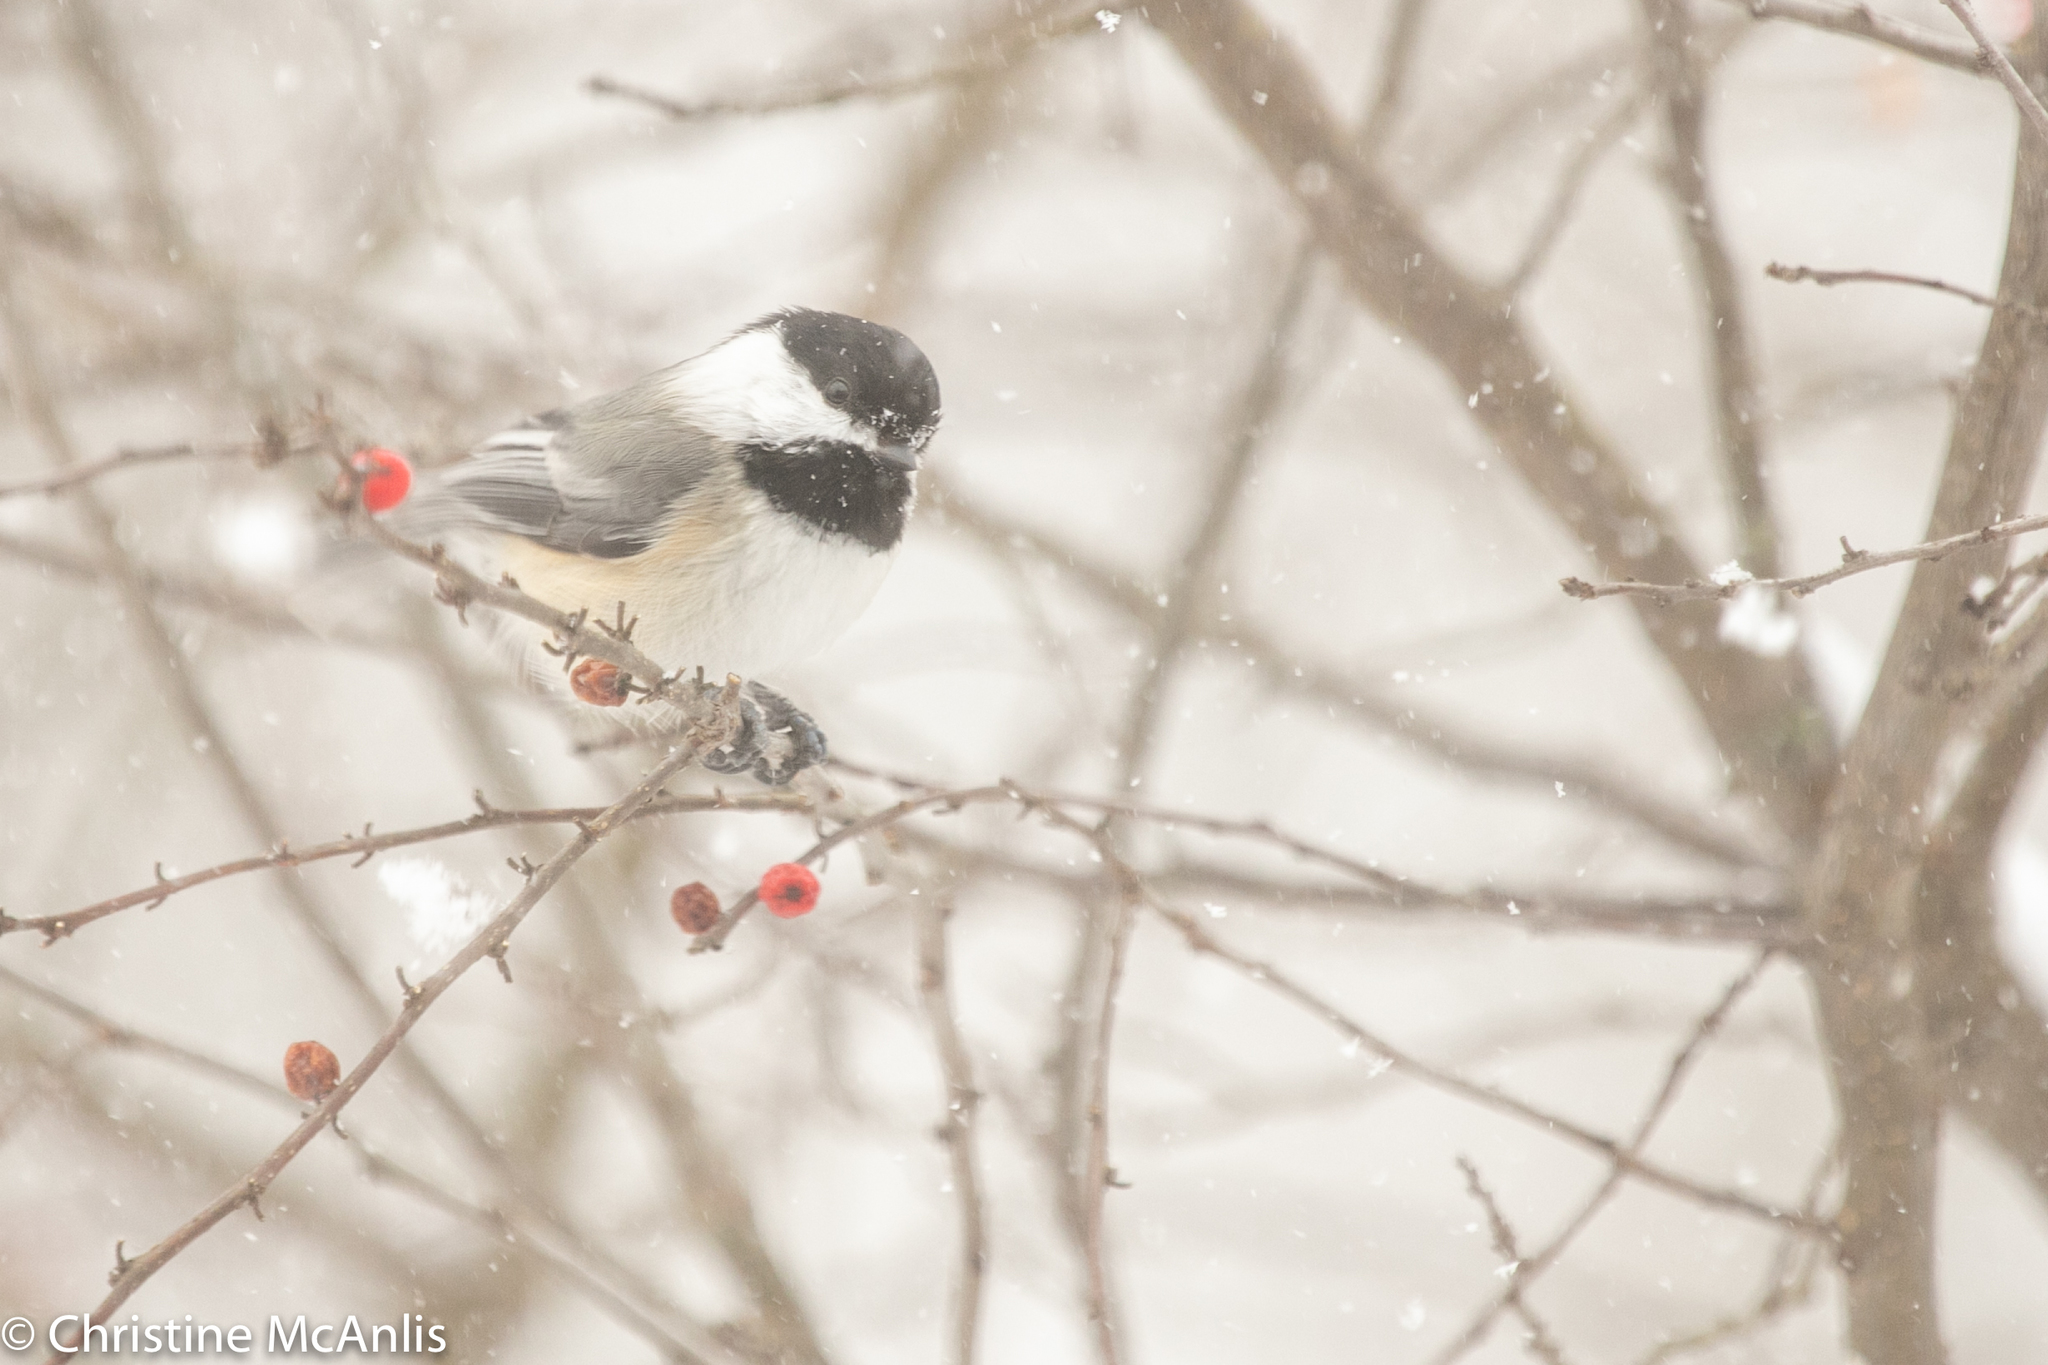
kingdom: Animalia
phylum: Chordata
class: Aves
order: Passeriformes
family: Paridae
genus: Poecile
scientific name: Poecile atricapillus
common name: Black-capped chickadee
